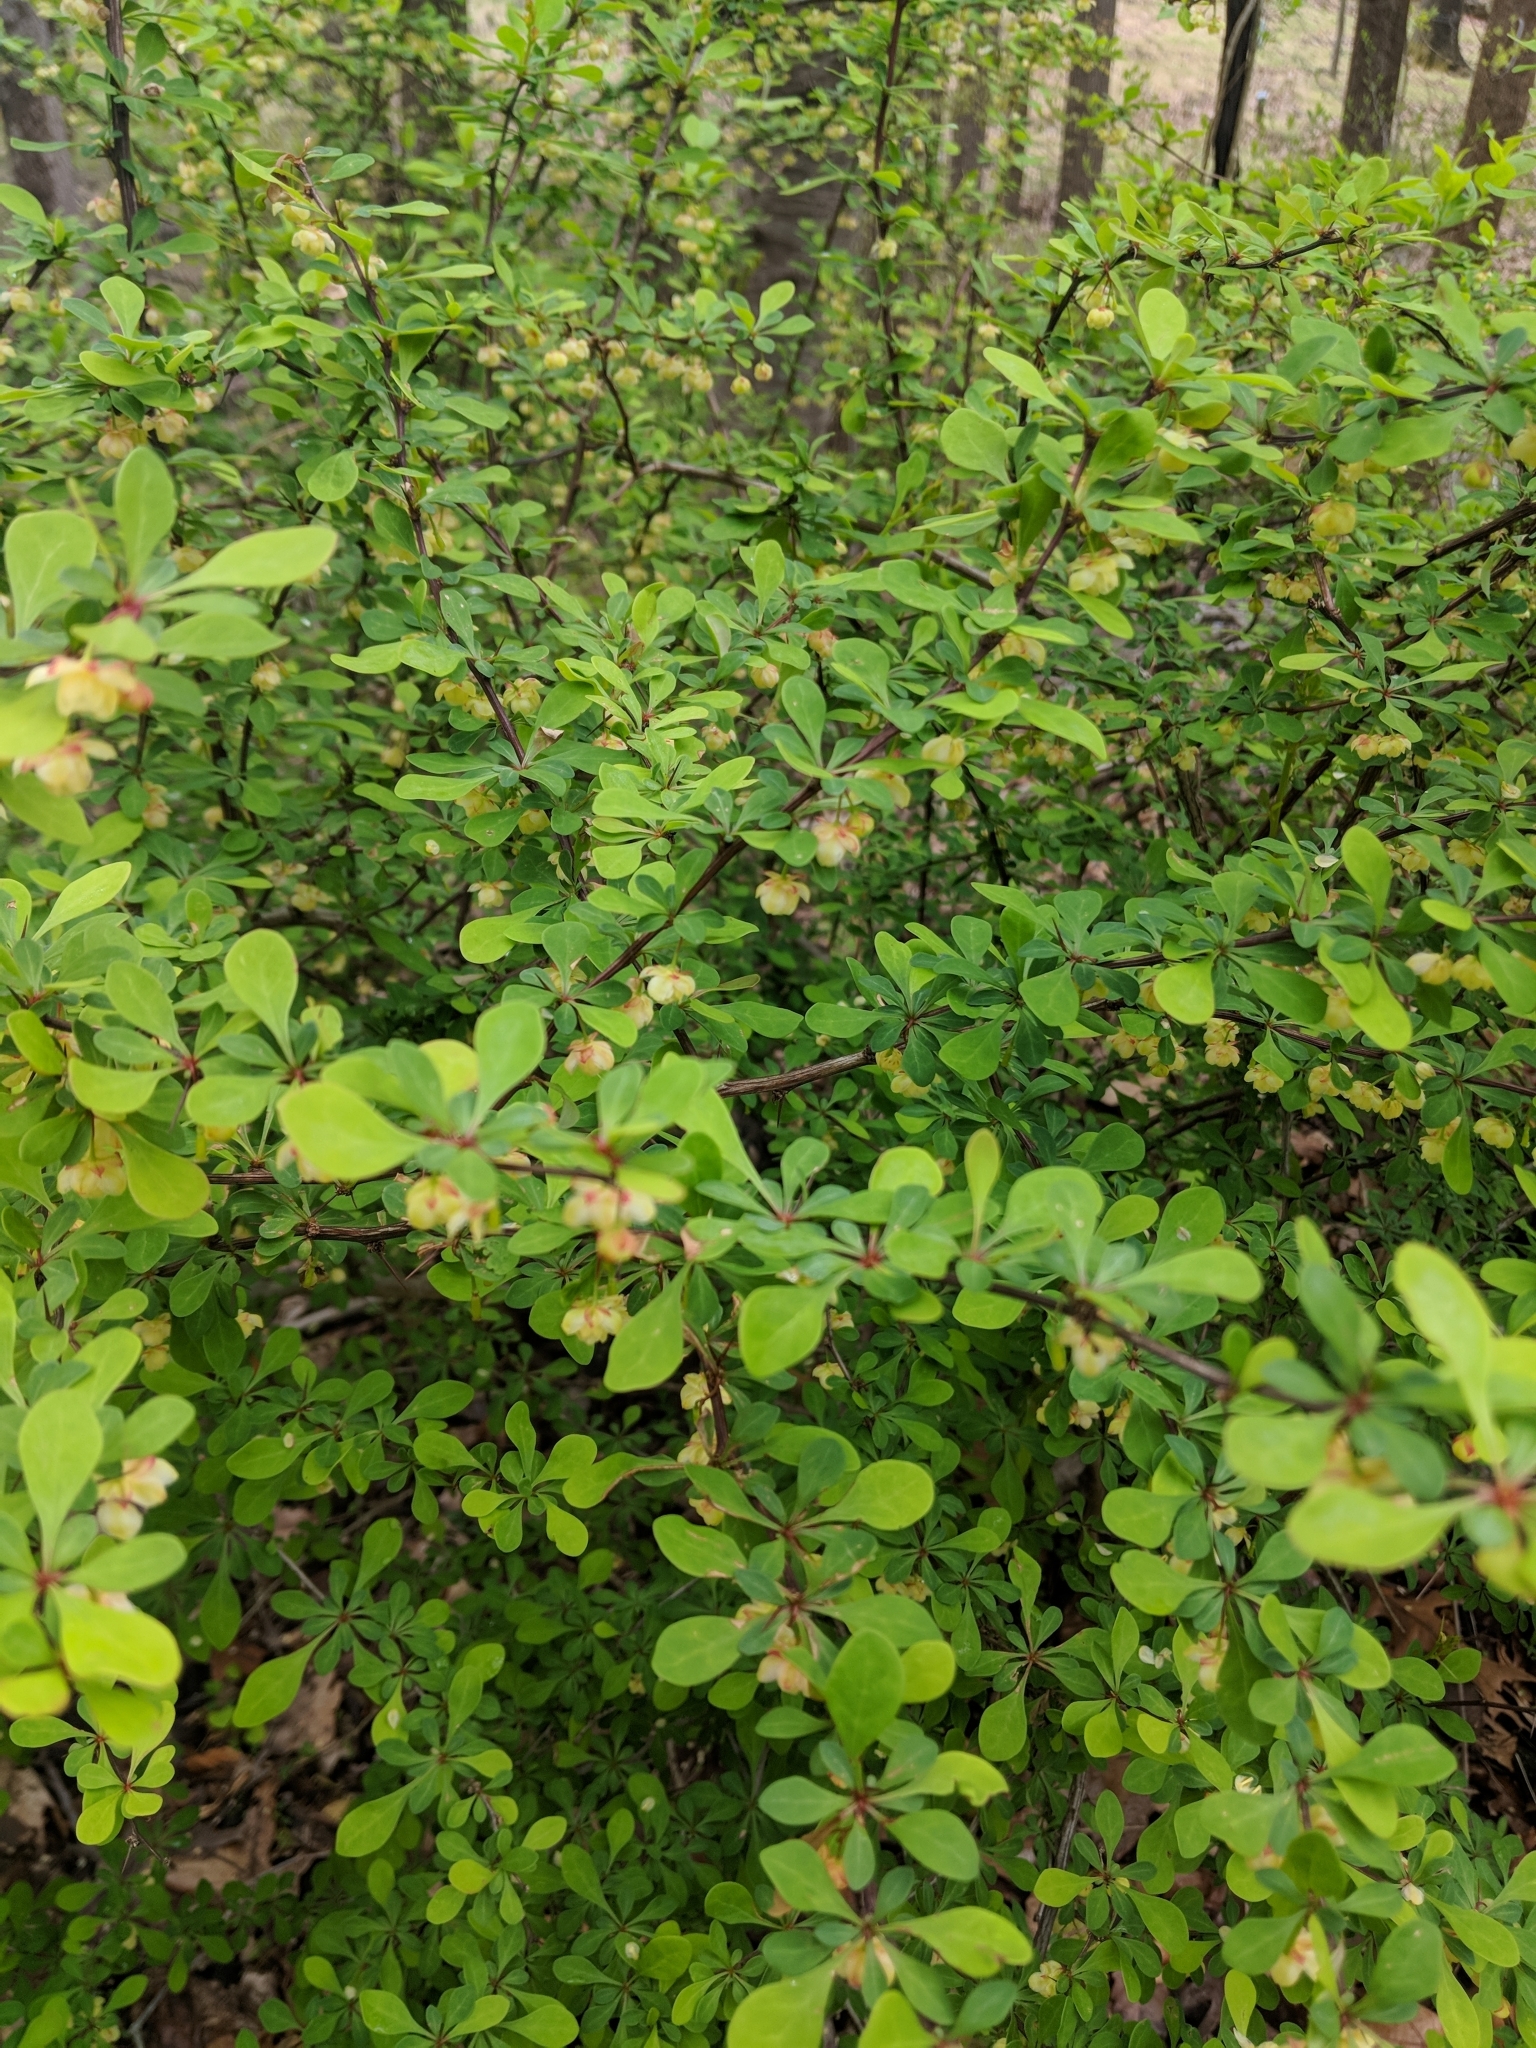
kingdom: Plantae
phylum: Tracheophyta
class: Magnoliopsida
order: Ranunculales
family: Berberidaceae
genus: Berberis
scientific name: Berberis thunbergii
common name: Japanese barberry
